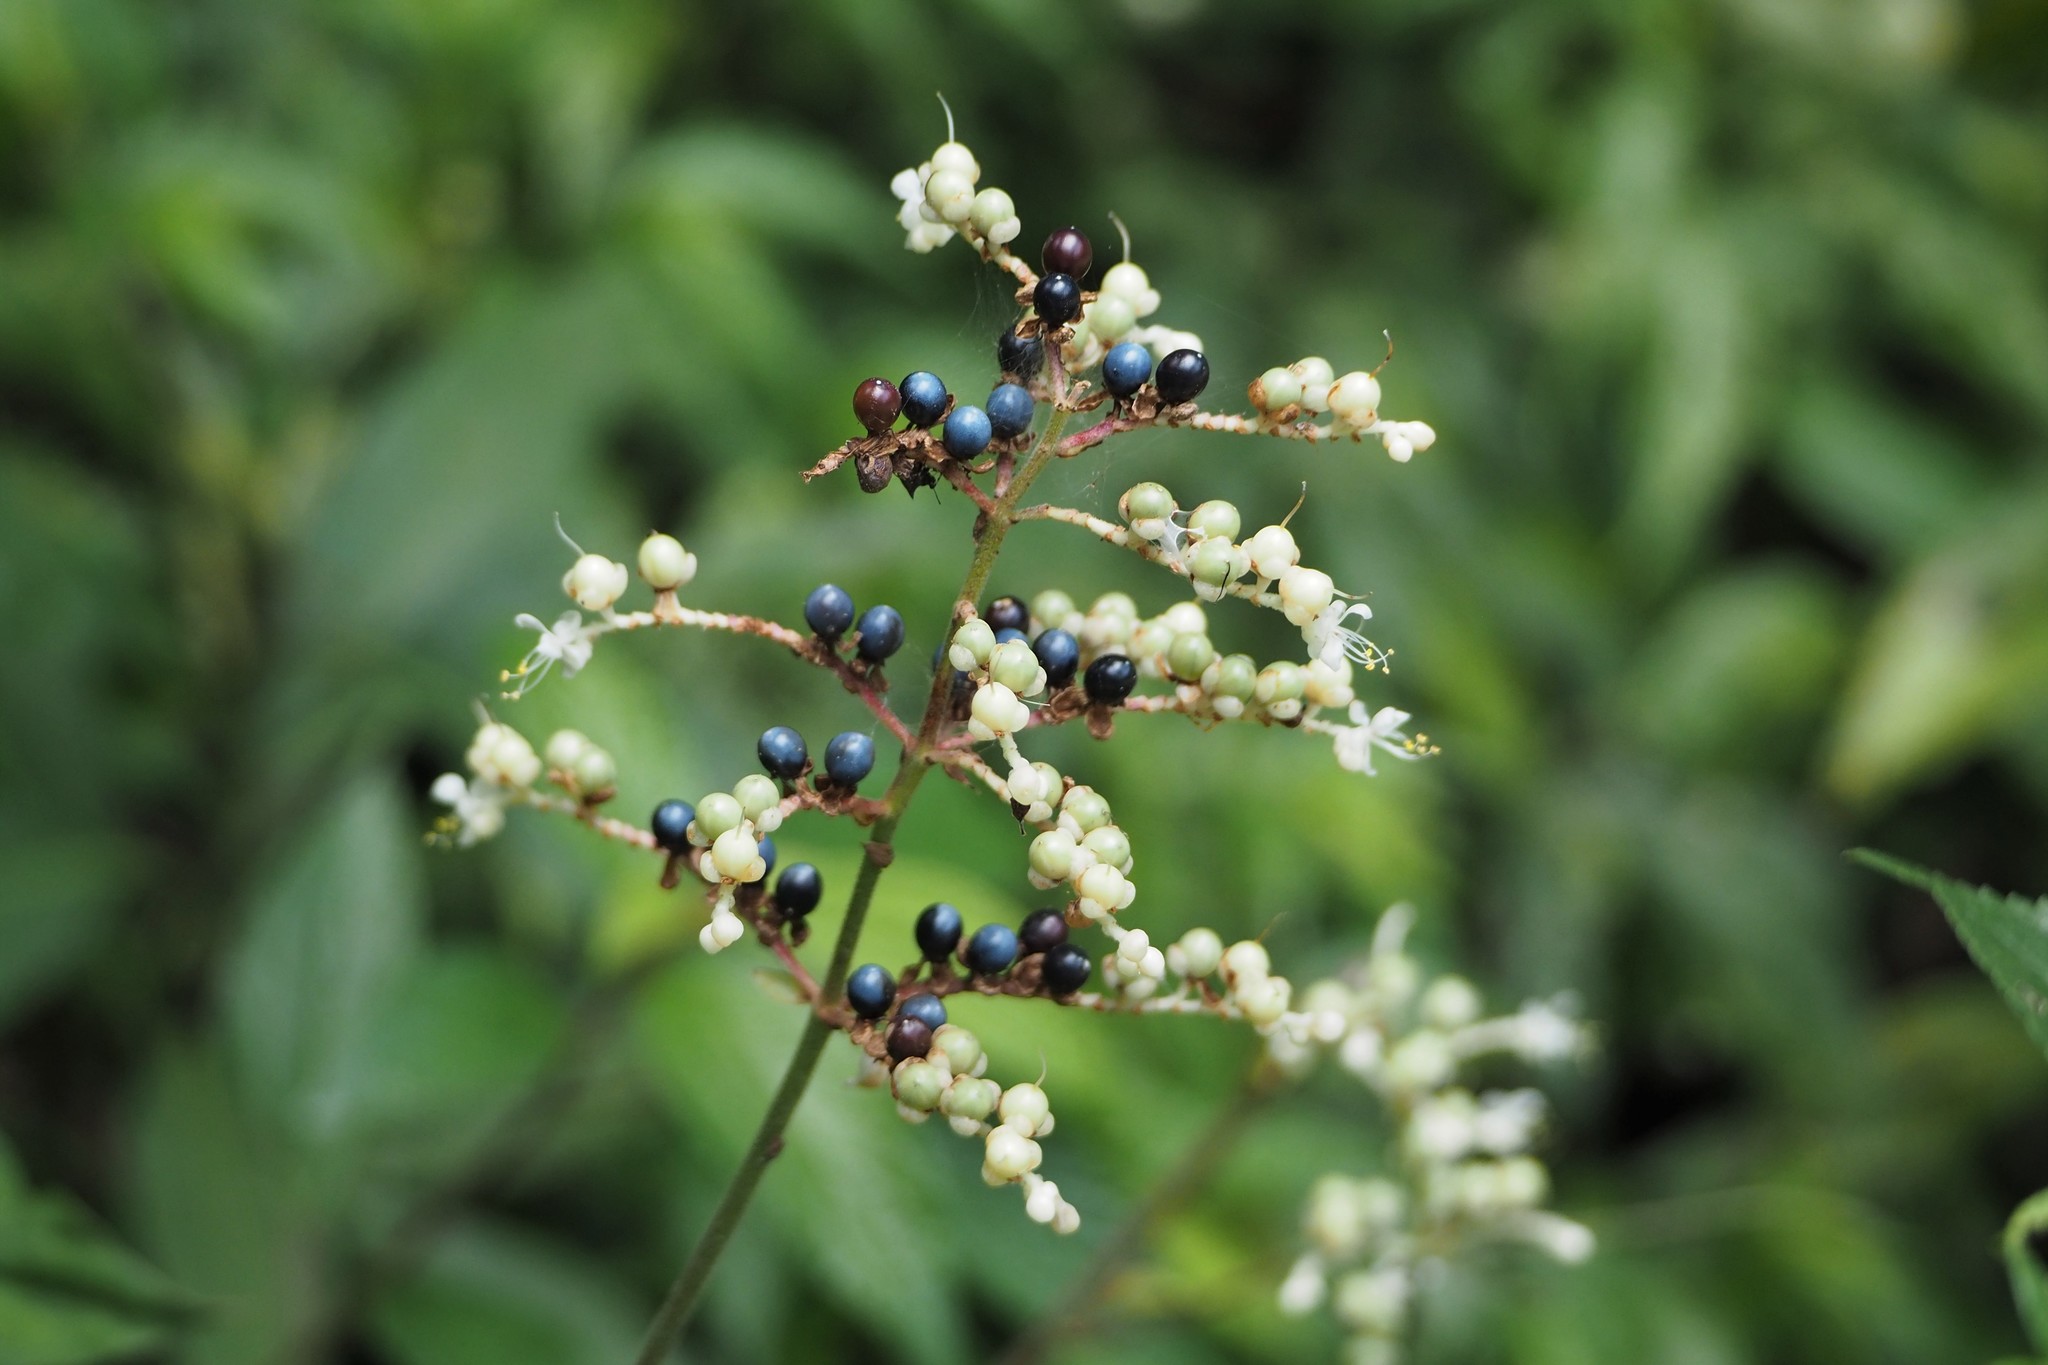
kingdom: Plantae
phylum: Tracheophyta
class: Liliopsida
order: Commelinales
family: Commelinaceae
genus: Pollia
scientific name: Pollia japonica
